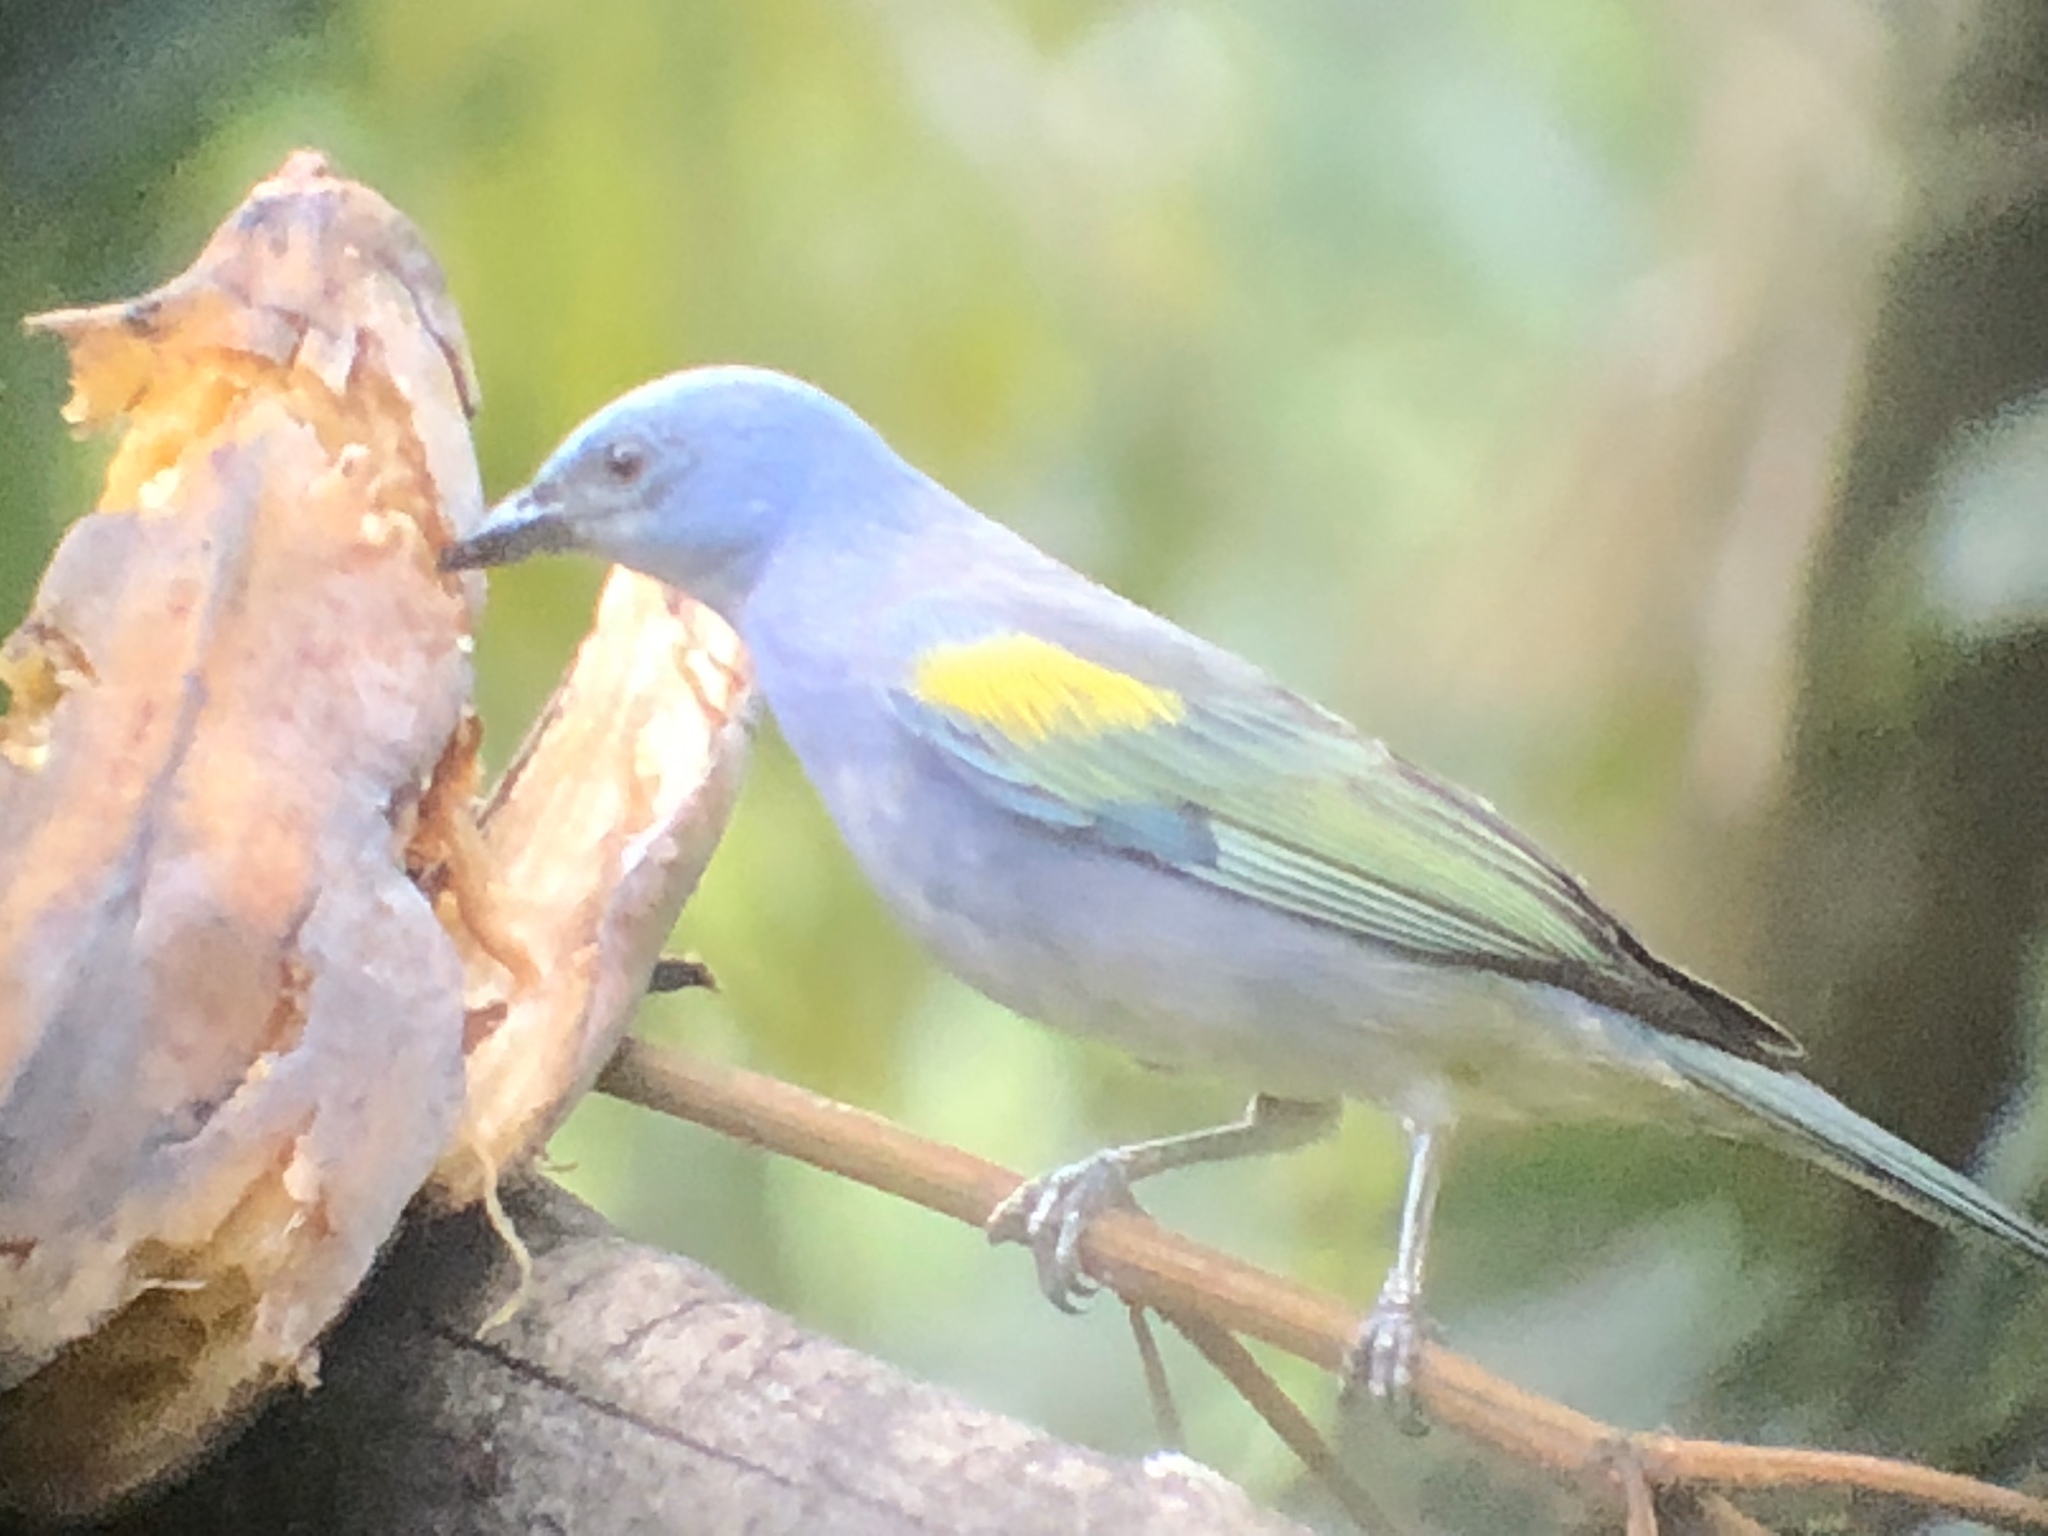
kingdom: Animalia
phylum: Chordata
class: Aves
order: Passeriformes
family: Thraupidae
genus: Thraupis
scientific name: Thraupis ornata
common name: Golden-chevroned tanager
